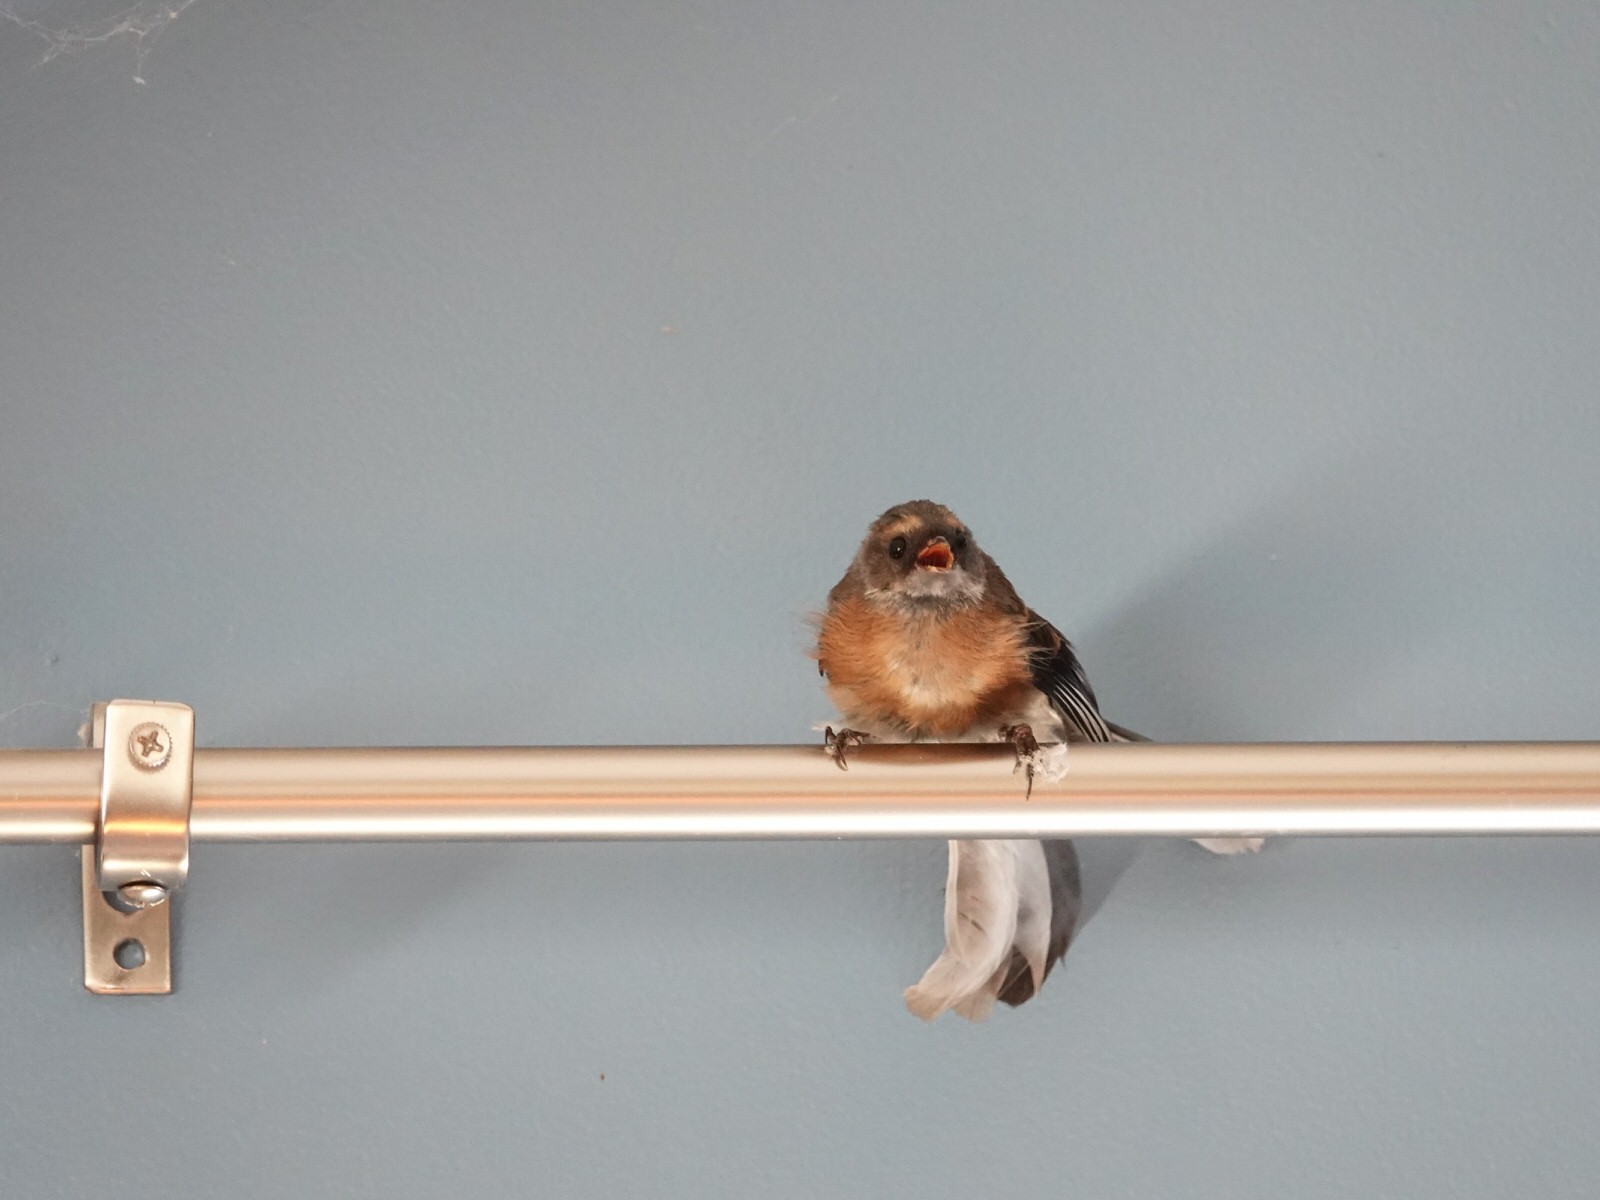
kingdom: Animalia
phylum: Chordata
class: Aves
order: Passeriformes
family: Rhipiduridae
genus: Rhipidura
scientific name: Rhipidura fuliginosa
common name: New zealand fantail
